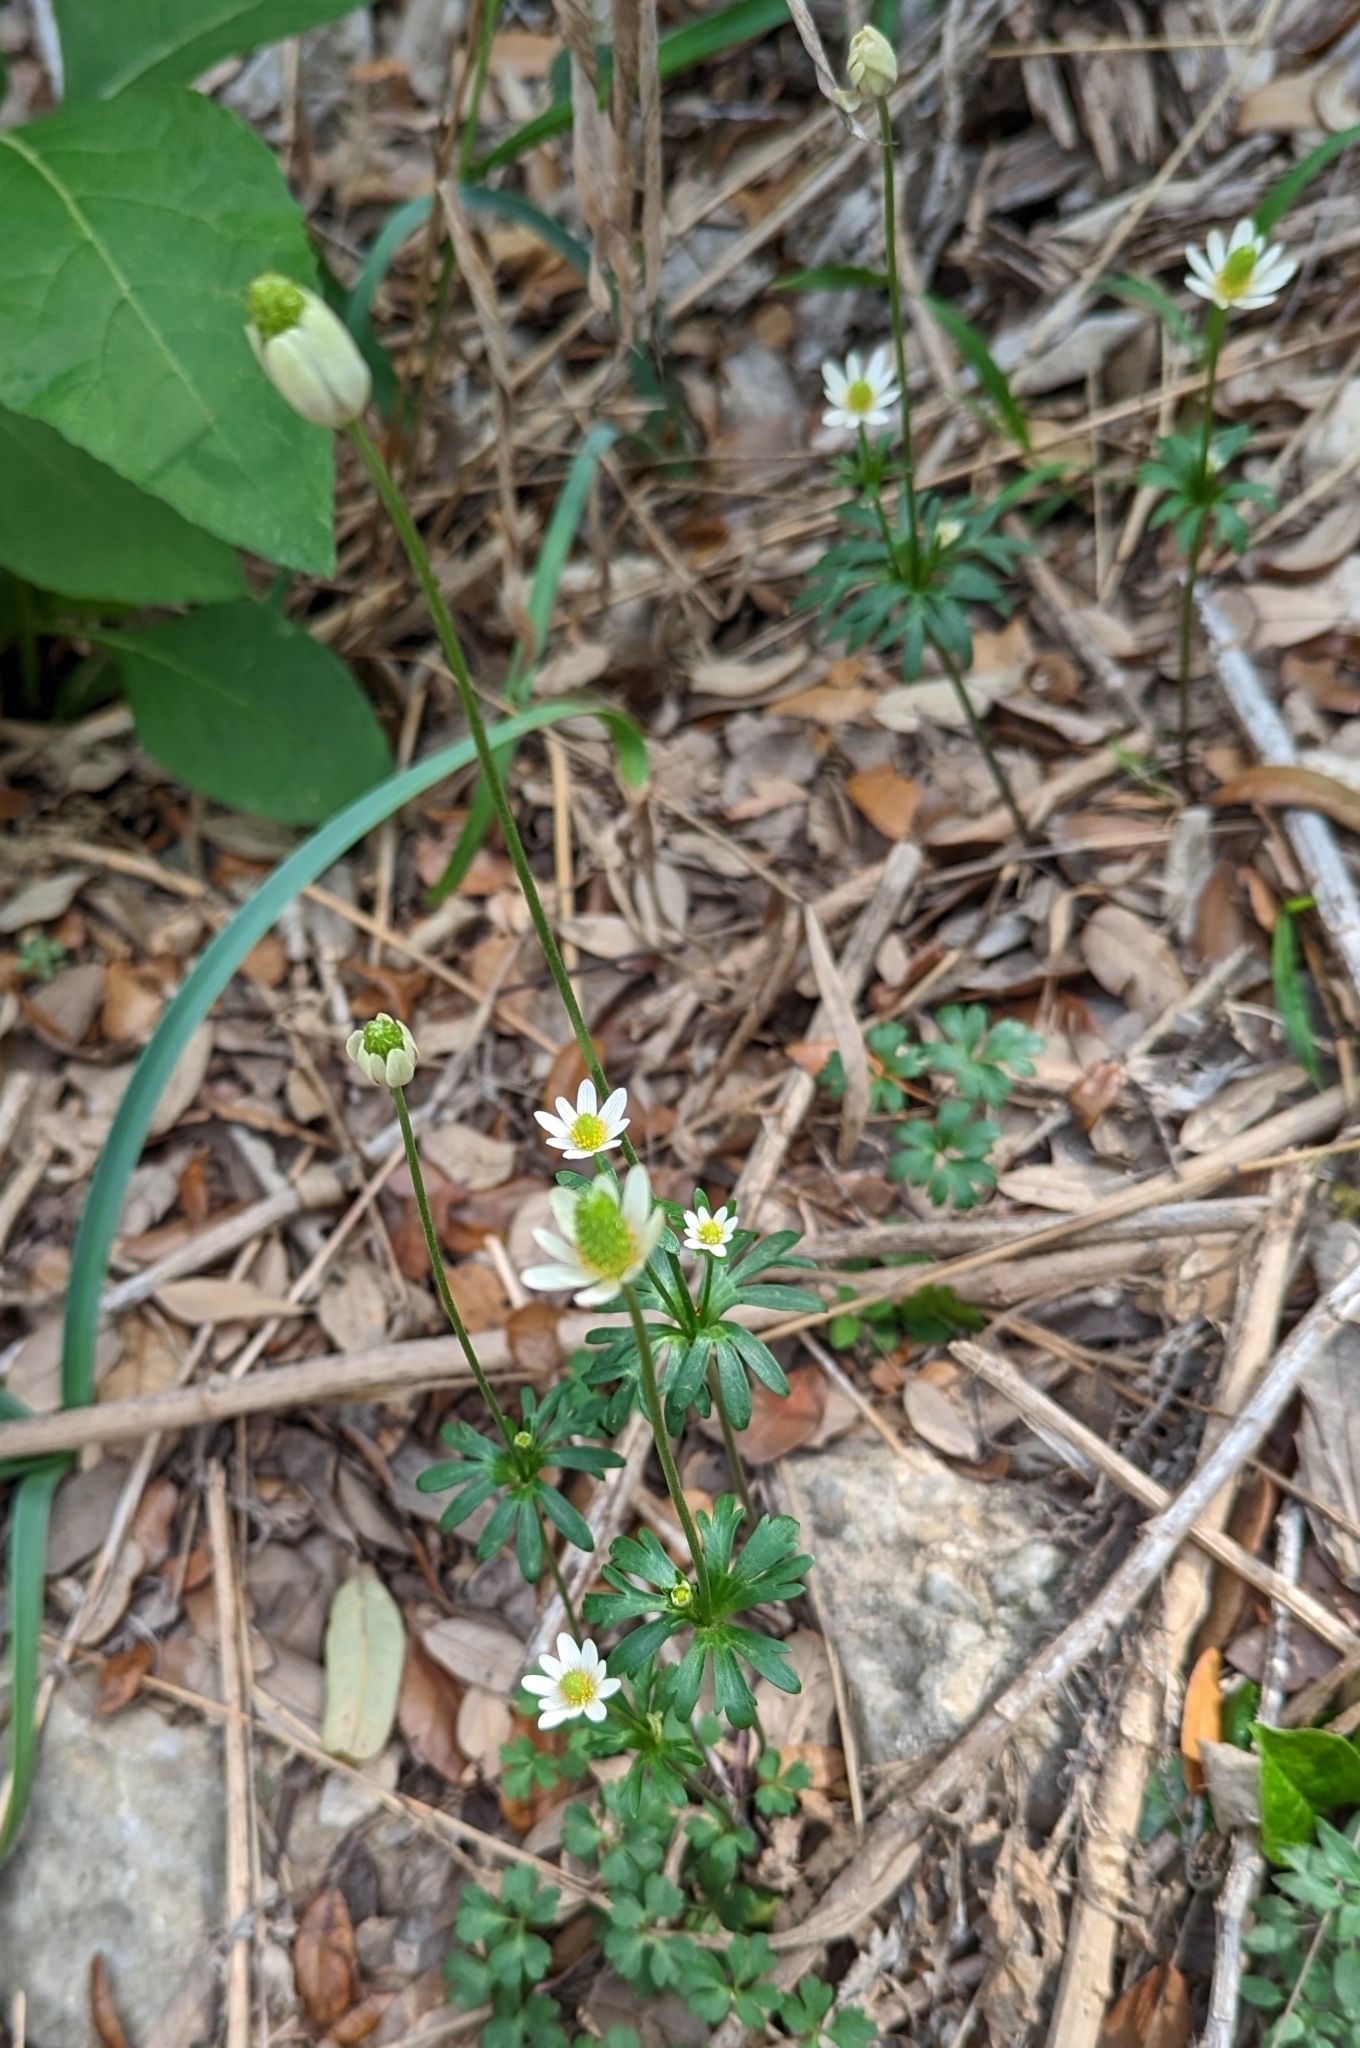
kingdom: Plantae
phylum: Tracheophyta
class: Magnoliopsida
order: Ranunculales
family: Ranunculaceae
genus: Anemone
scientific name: Anemone edwardsiana
